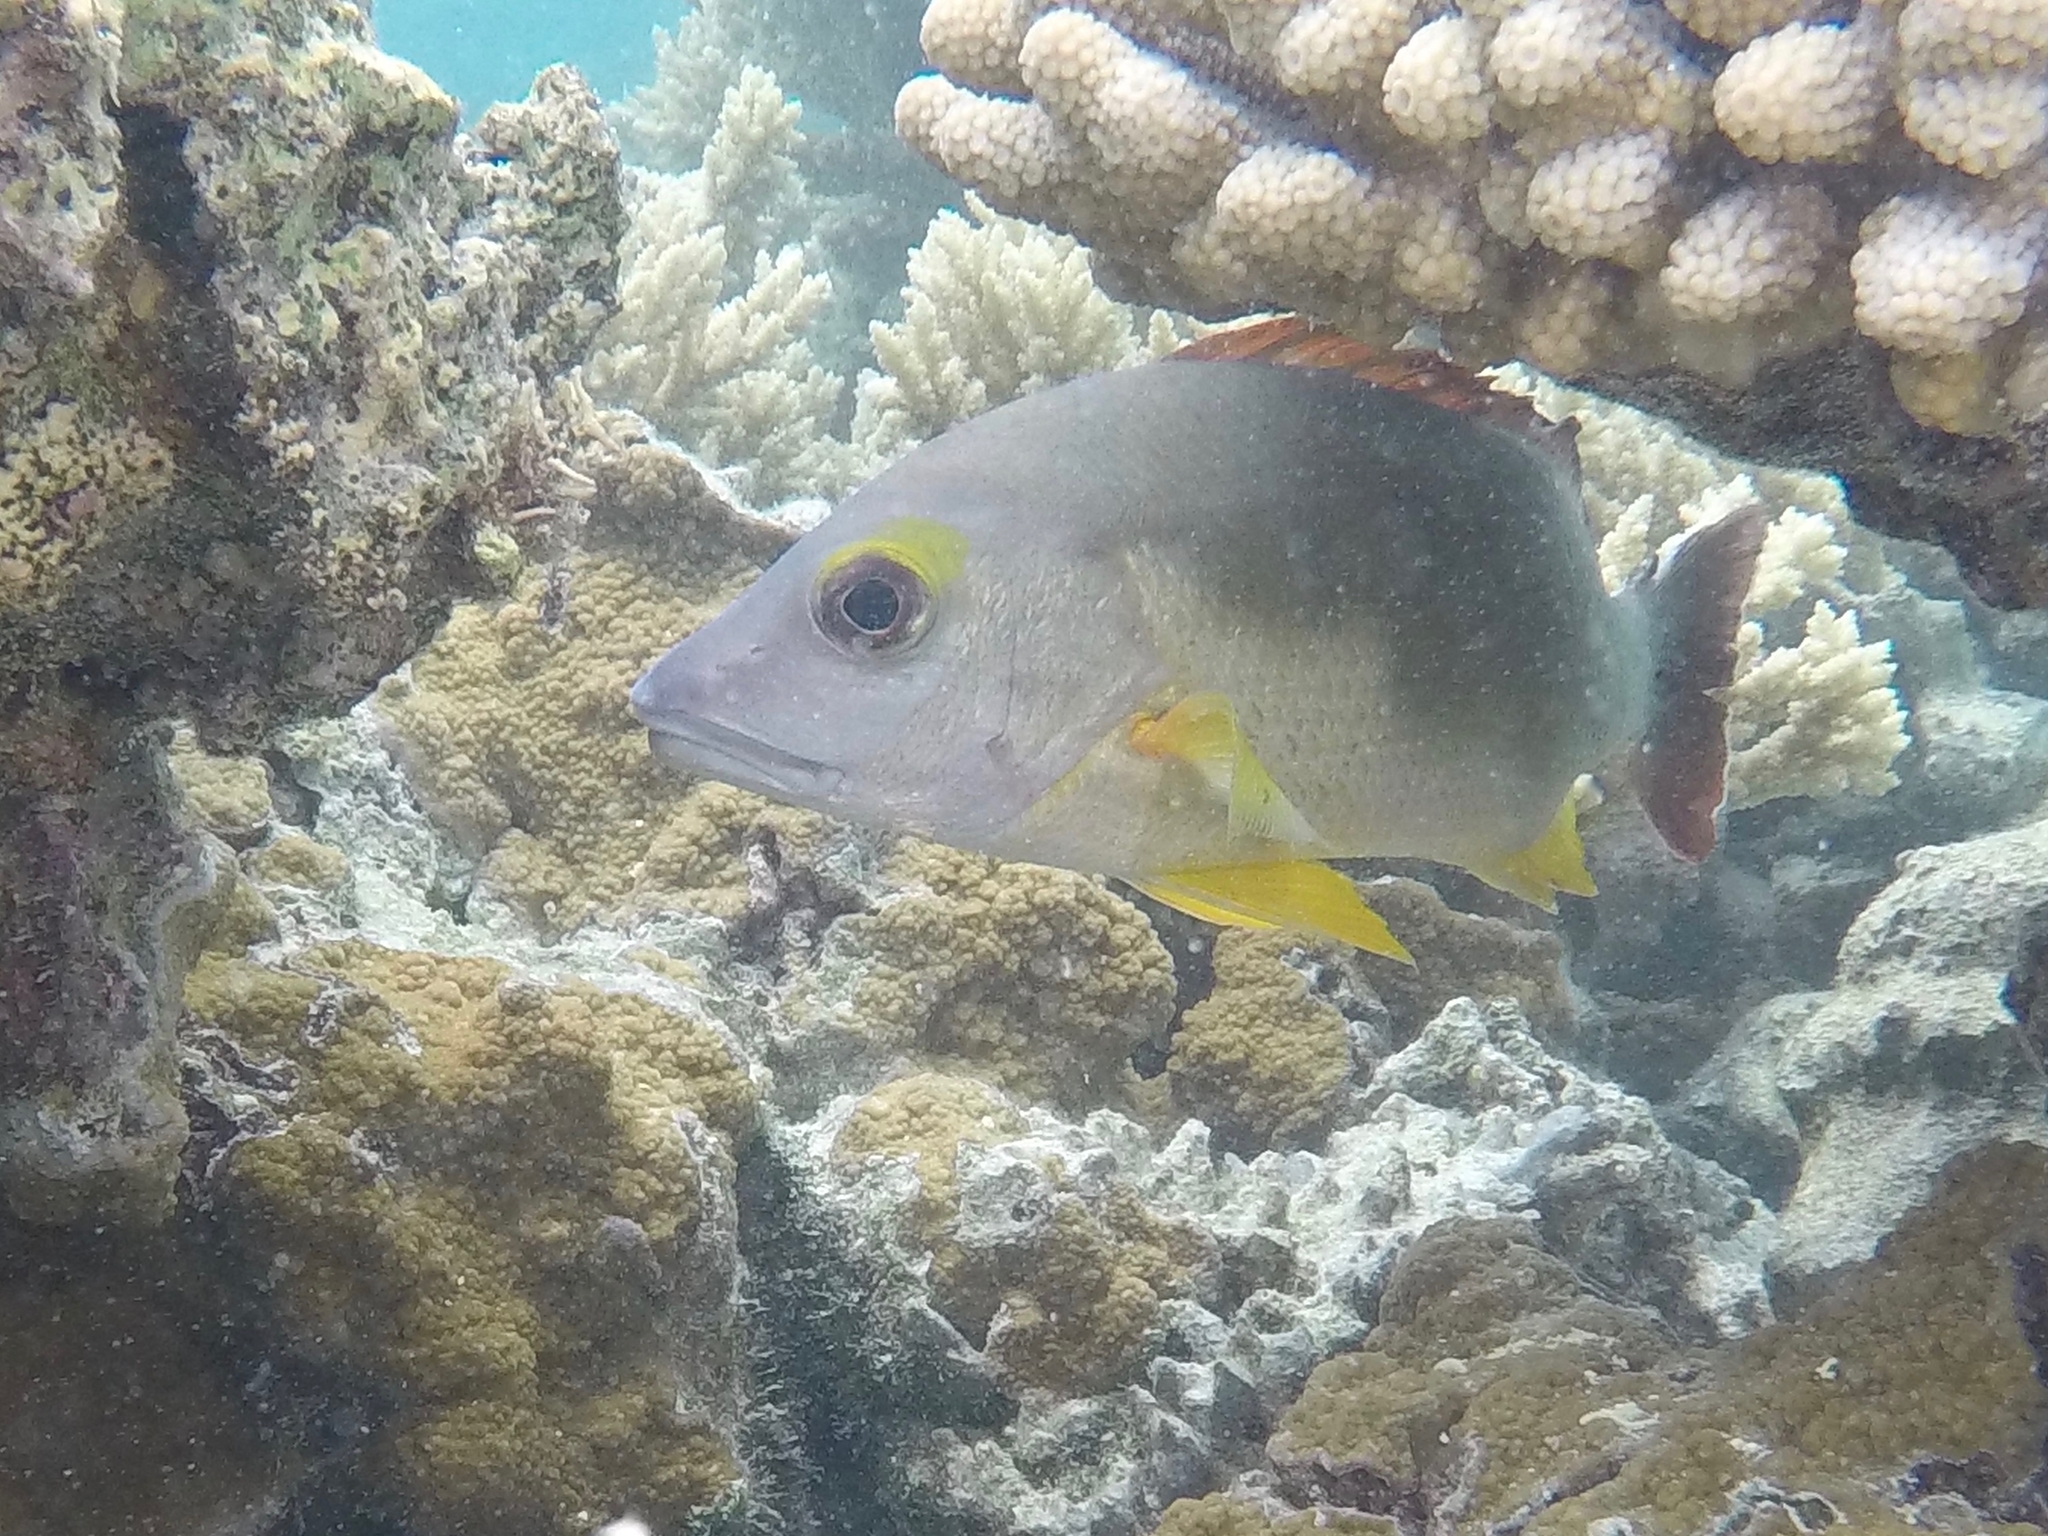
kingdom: Animalia
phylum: Chordata
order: Perciformes
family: Lutjanidae
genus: Lutjanus
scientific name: Lutjanus fulvus
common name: Blacktail snapper
